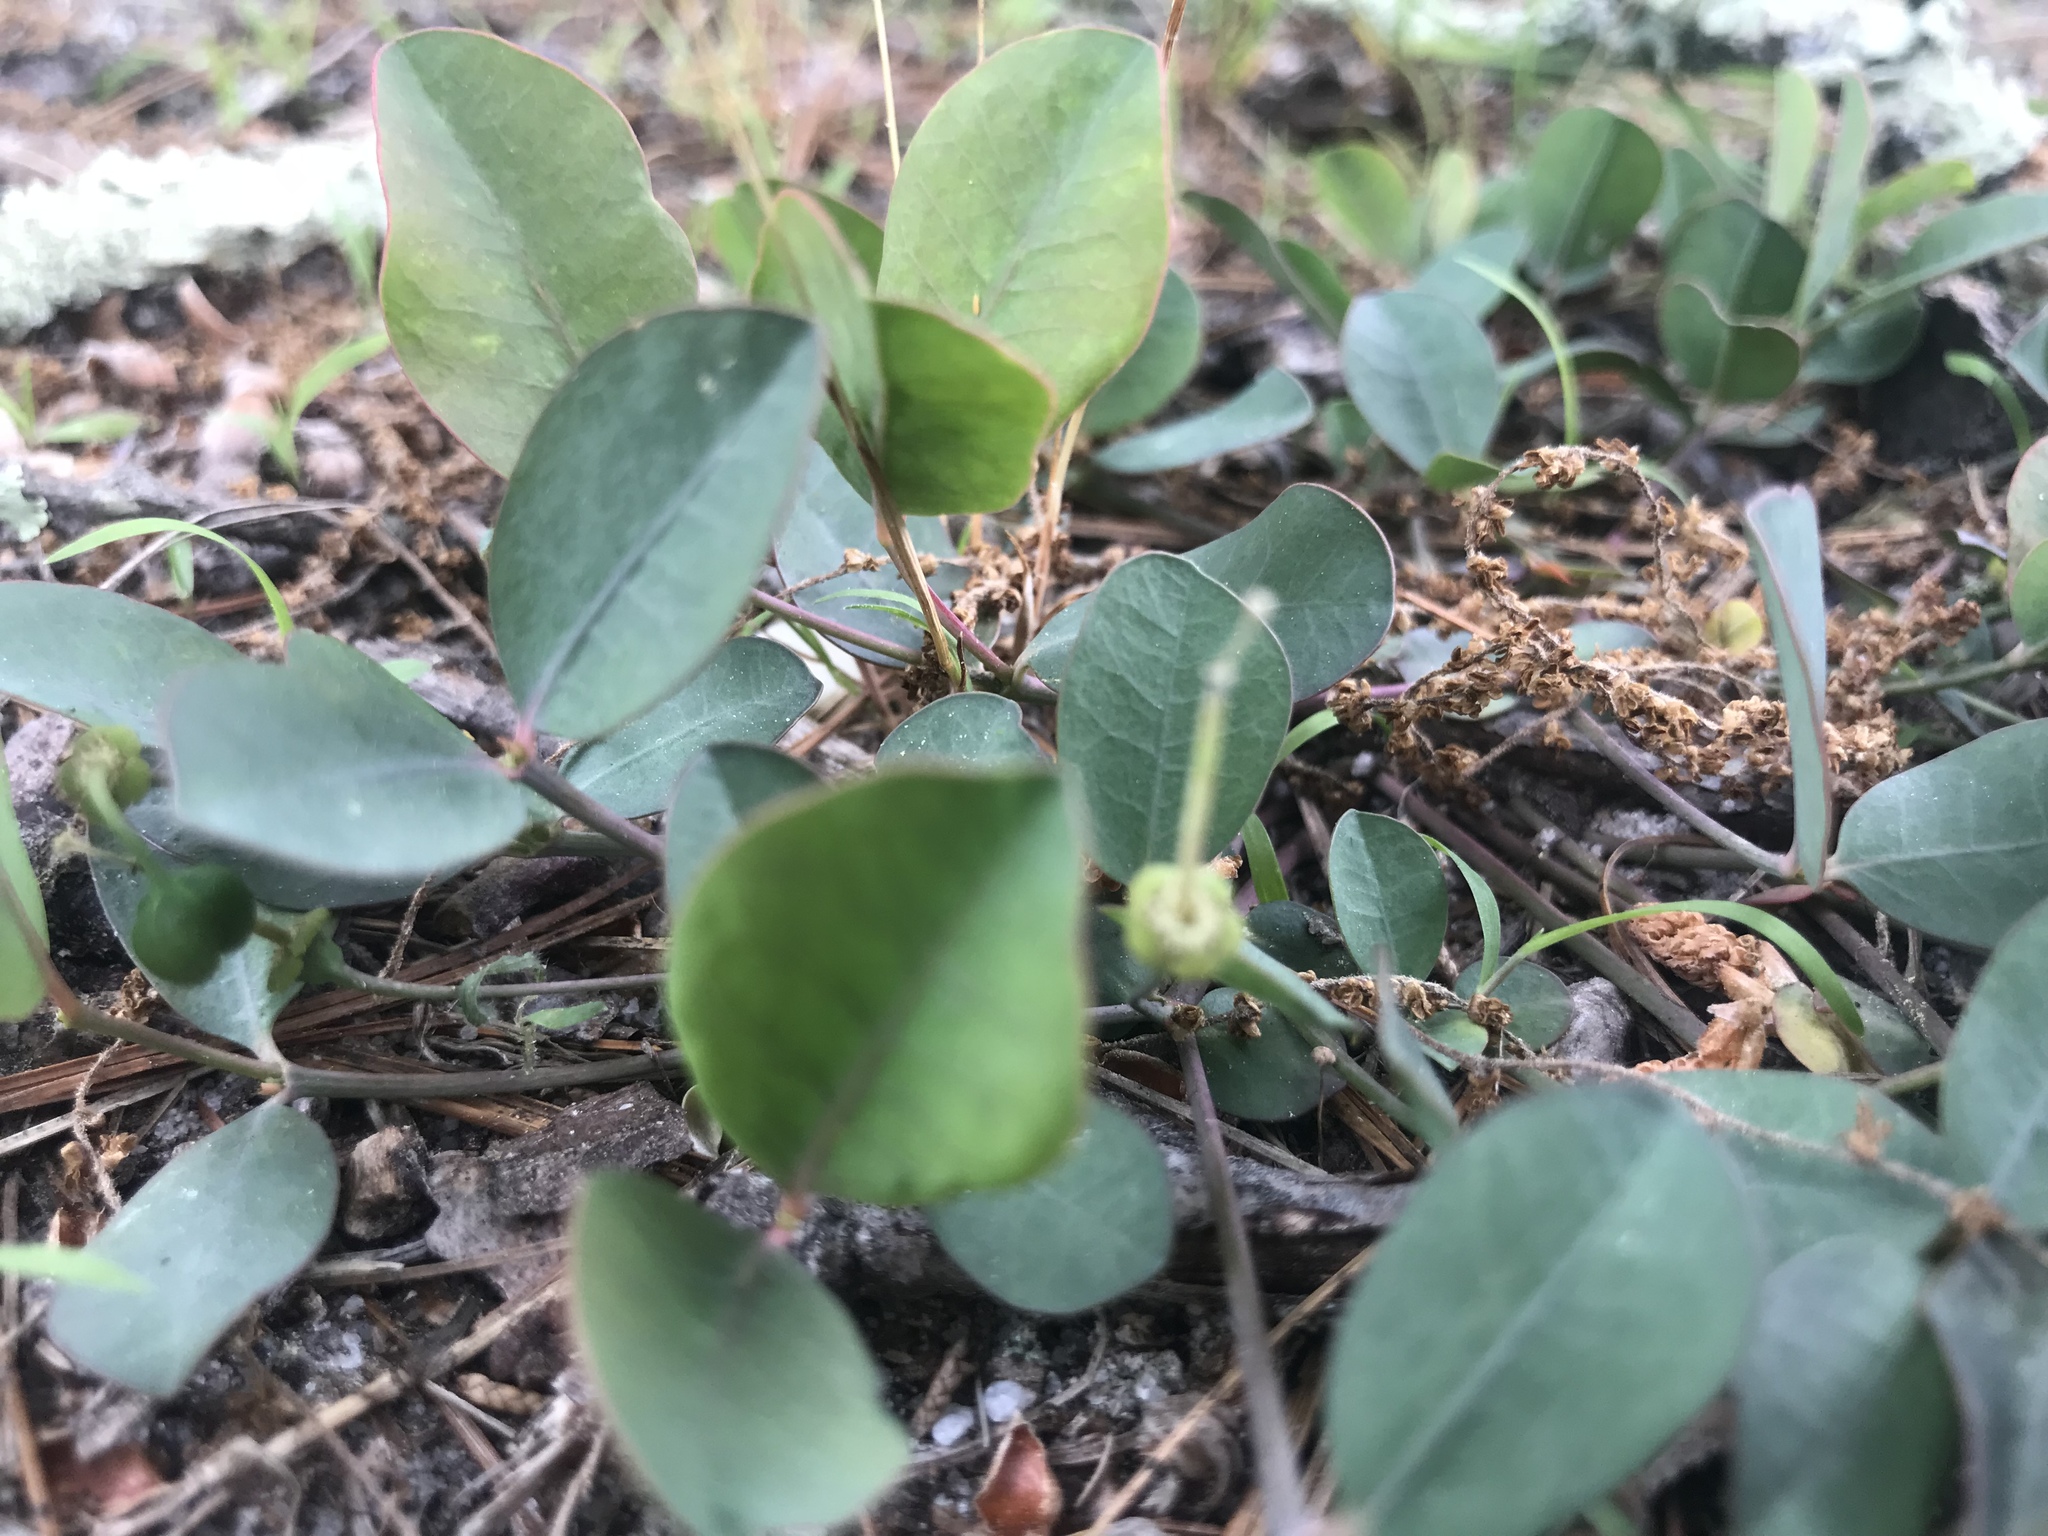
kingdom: Plantae
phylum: Tracheophyta
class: Magnoliopsida
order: Malpighiales
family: Euphorbiaceae
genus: Euphorbia
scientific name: Euphorbia ipecacuanhae
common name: Carolina ipecac
